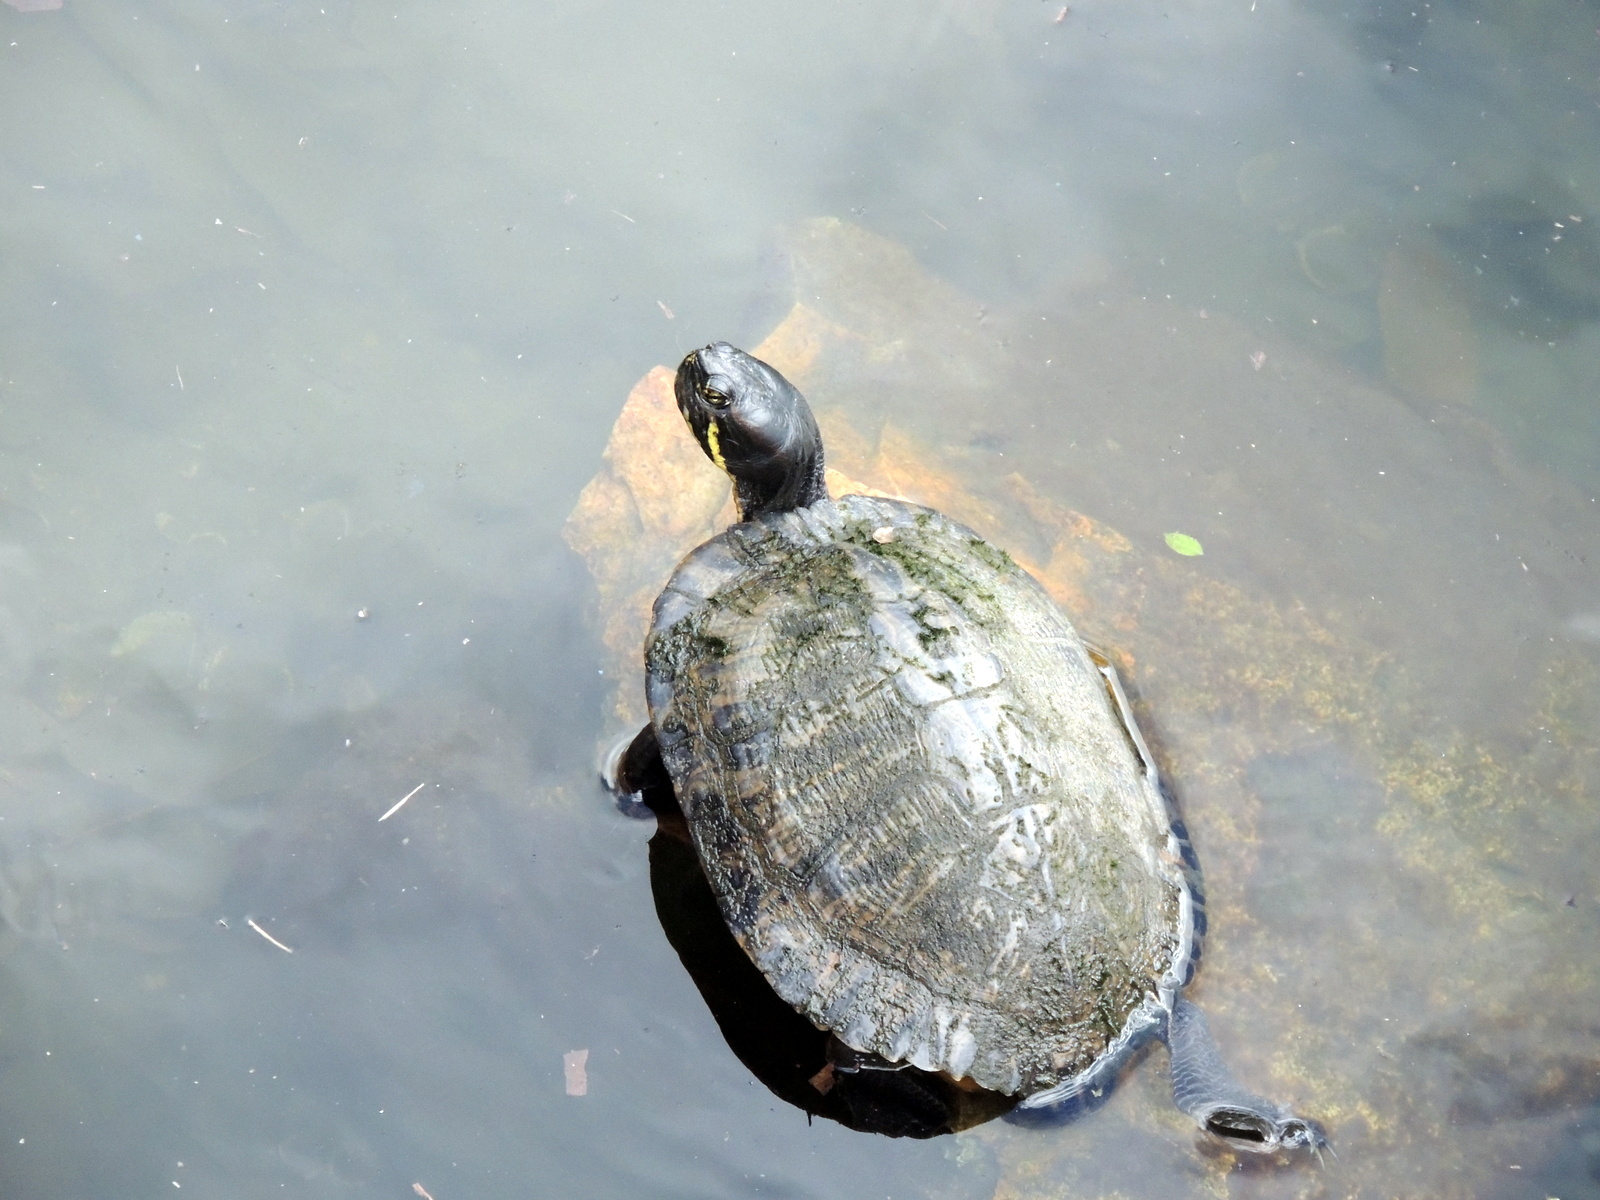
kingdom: Animalia
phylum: Chordata
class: Testudines
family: Emydidae
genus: Trachemys
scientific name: Trachemys scripta
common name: Slider
